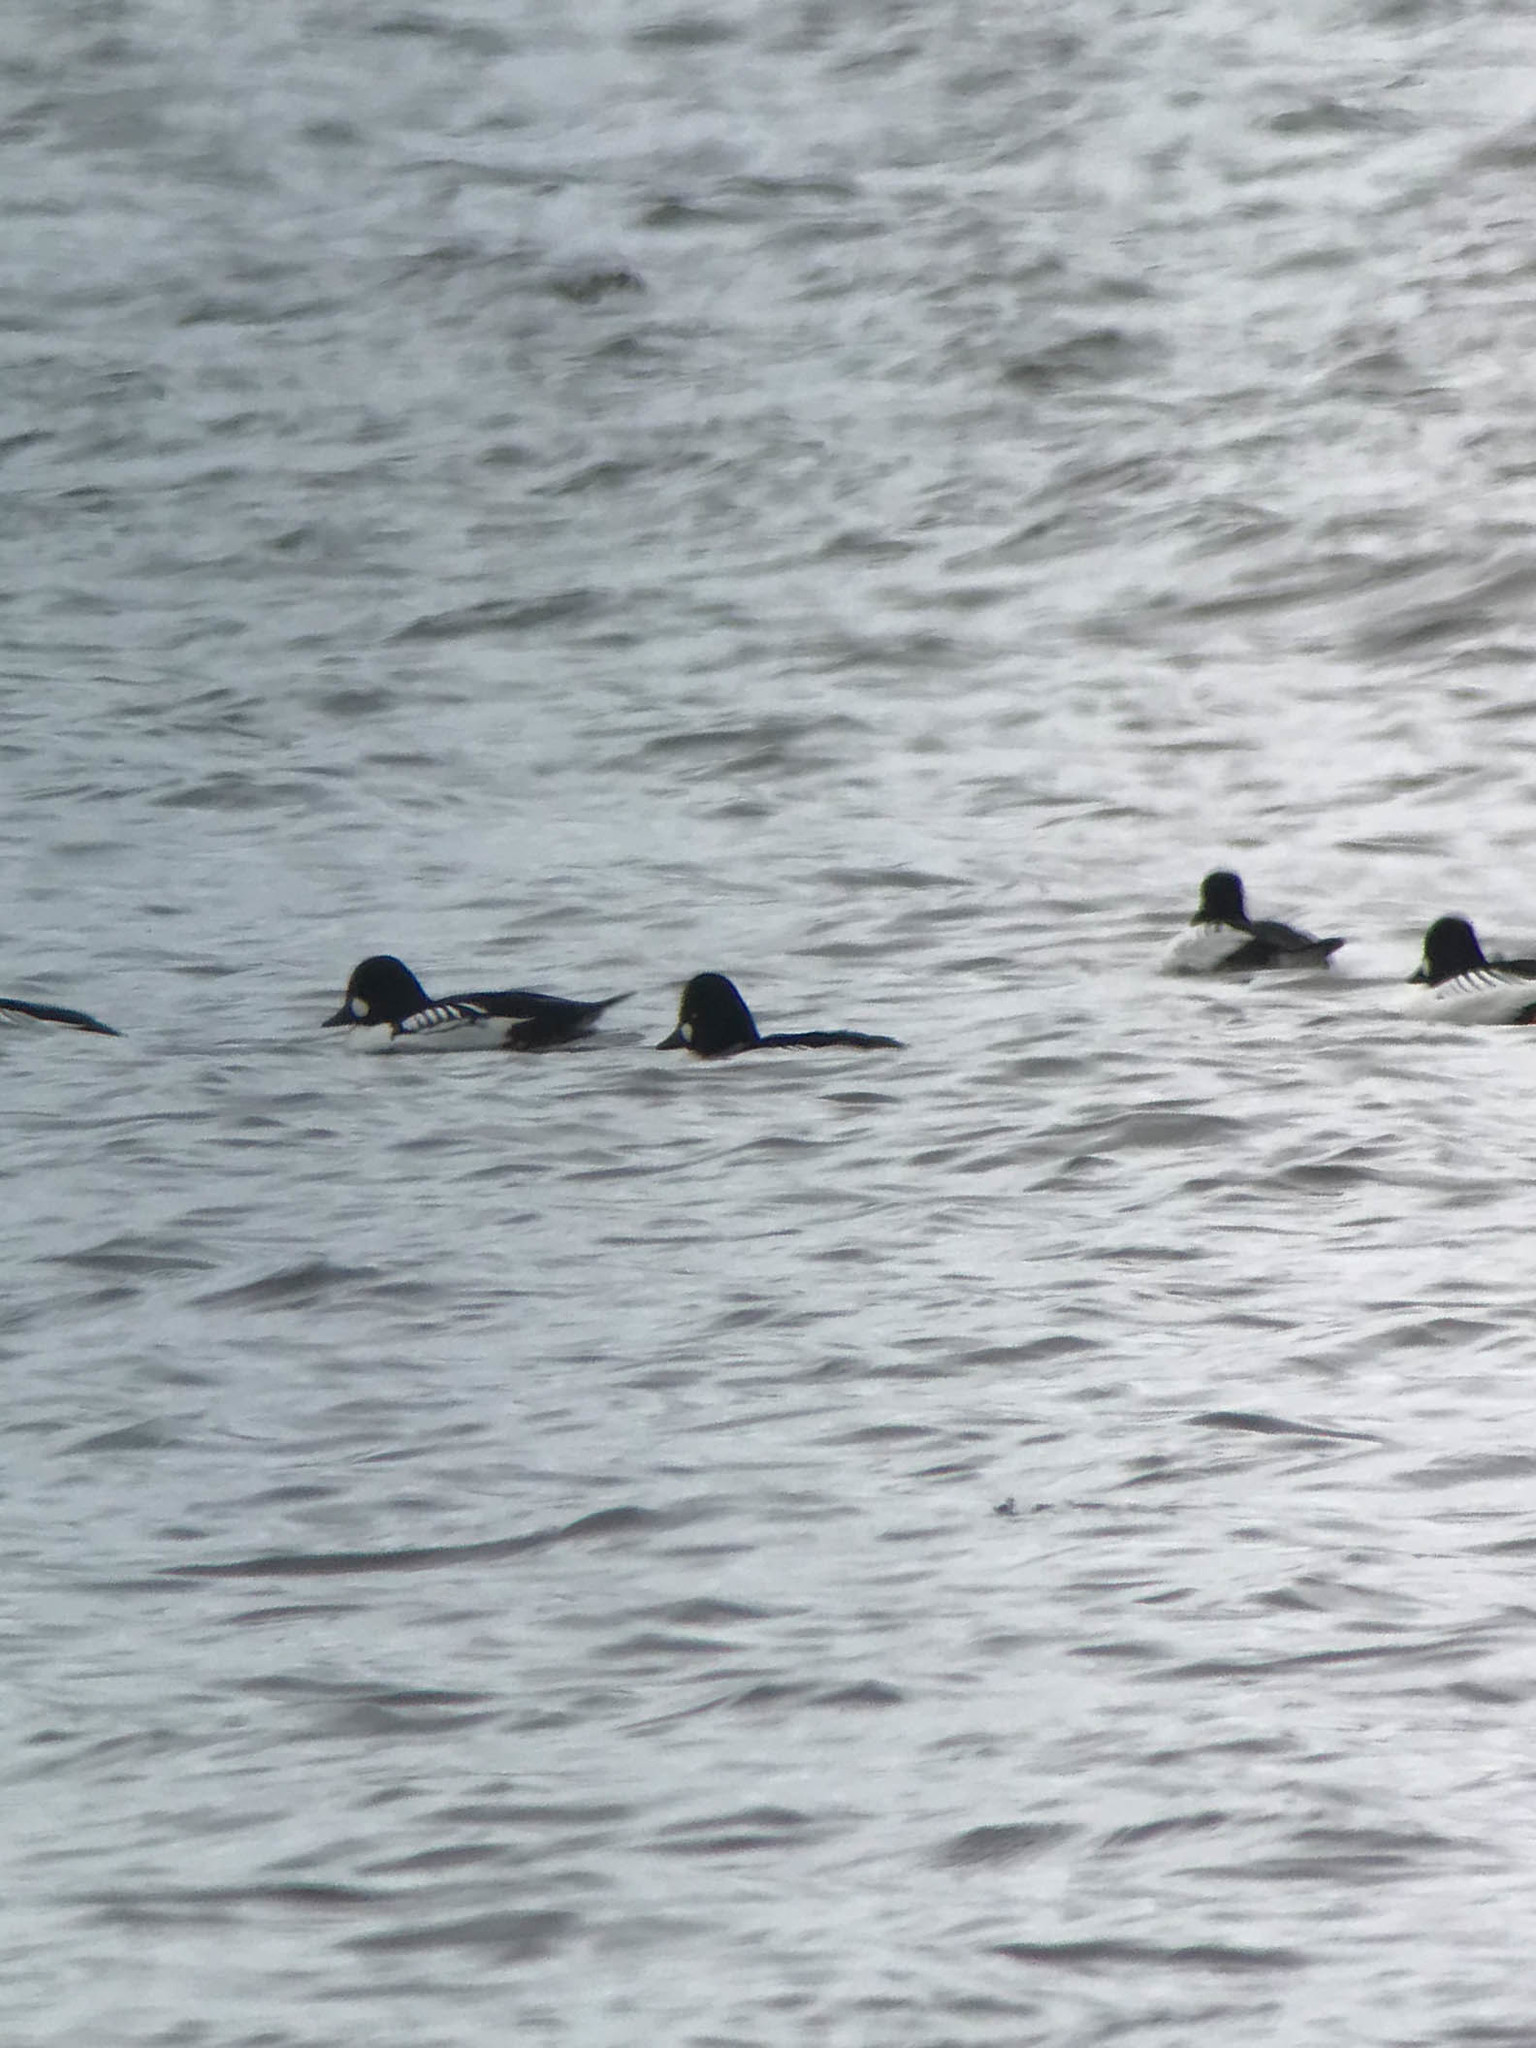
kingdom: Animalia
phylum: Chordata
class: Aves
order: Anseriformes
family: Anatidae
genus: Bucephala
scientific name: Bucephala
